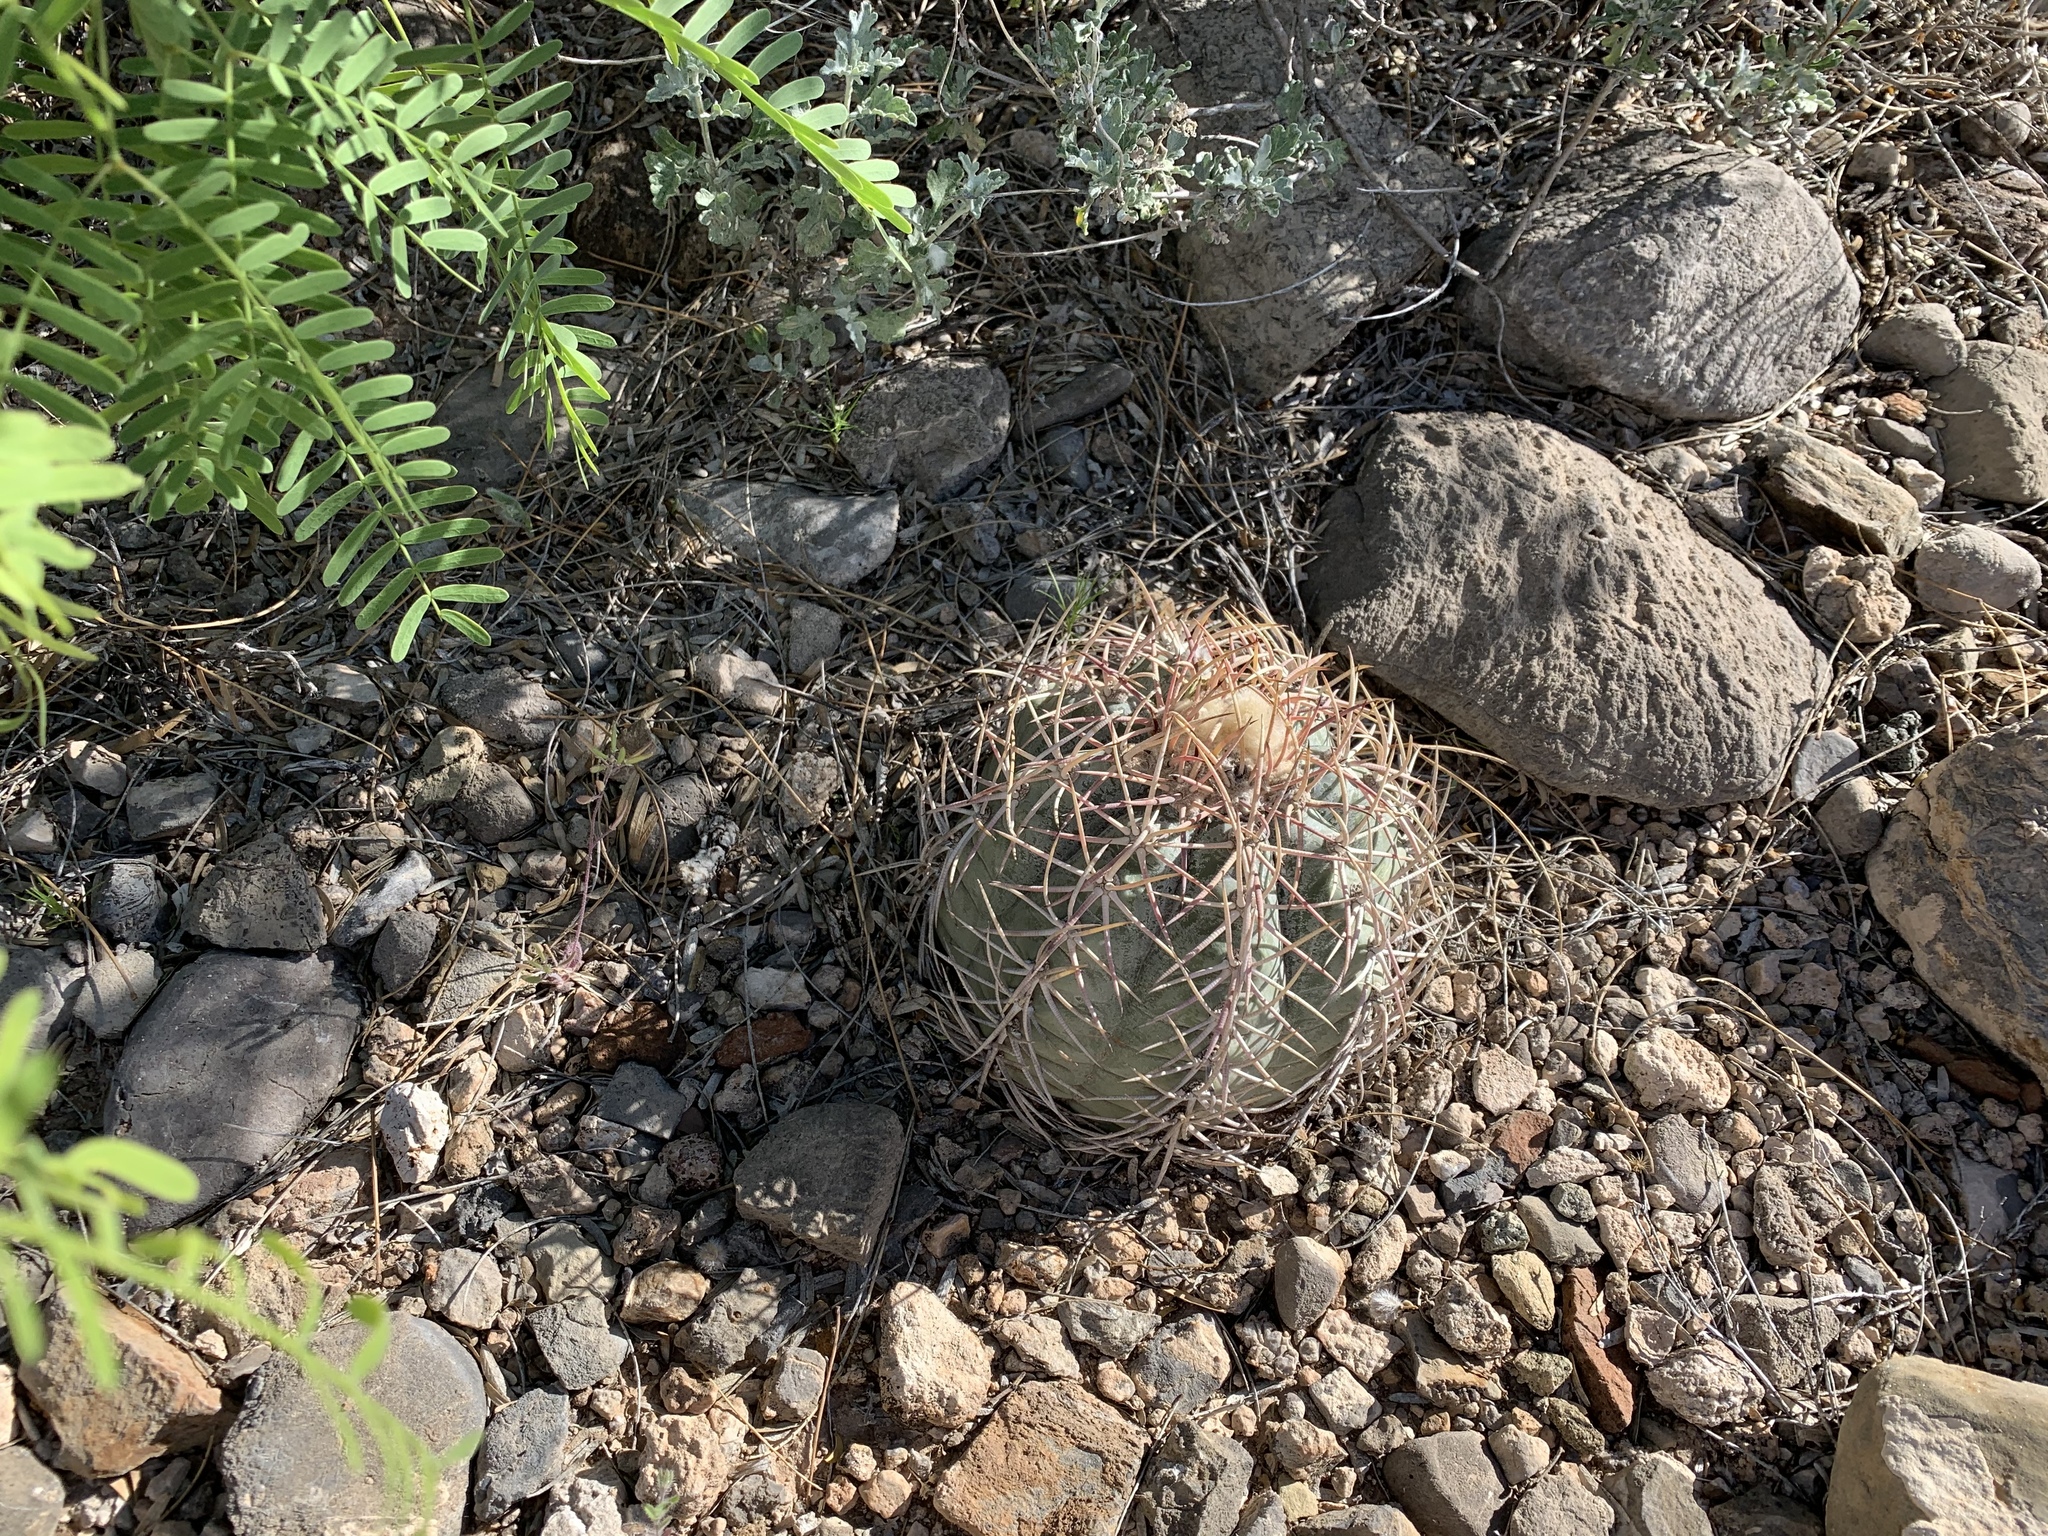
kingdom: Plantae
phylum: Tracheophyta
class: Magnoliopsida
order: Caryophyllales
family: Cactaceae
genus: Echinocactus
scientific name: Echinocactus horizonthalonius
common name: Devilshead
